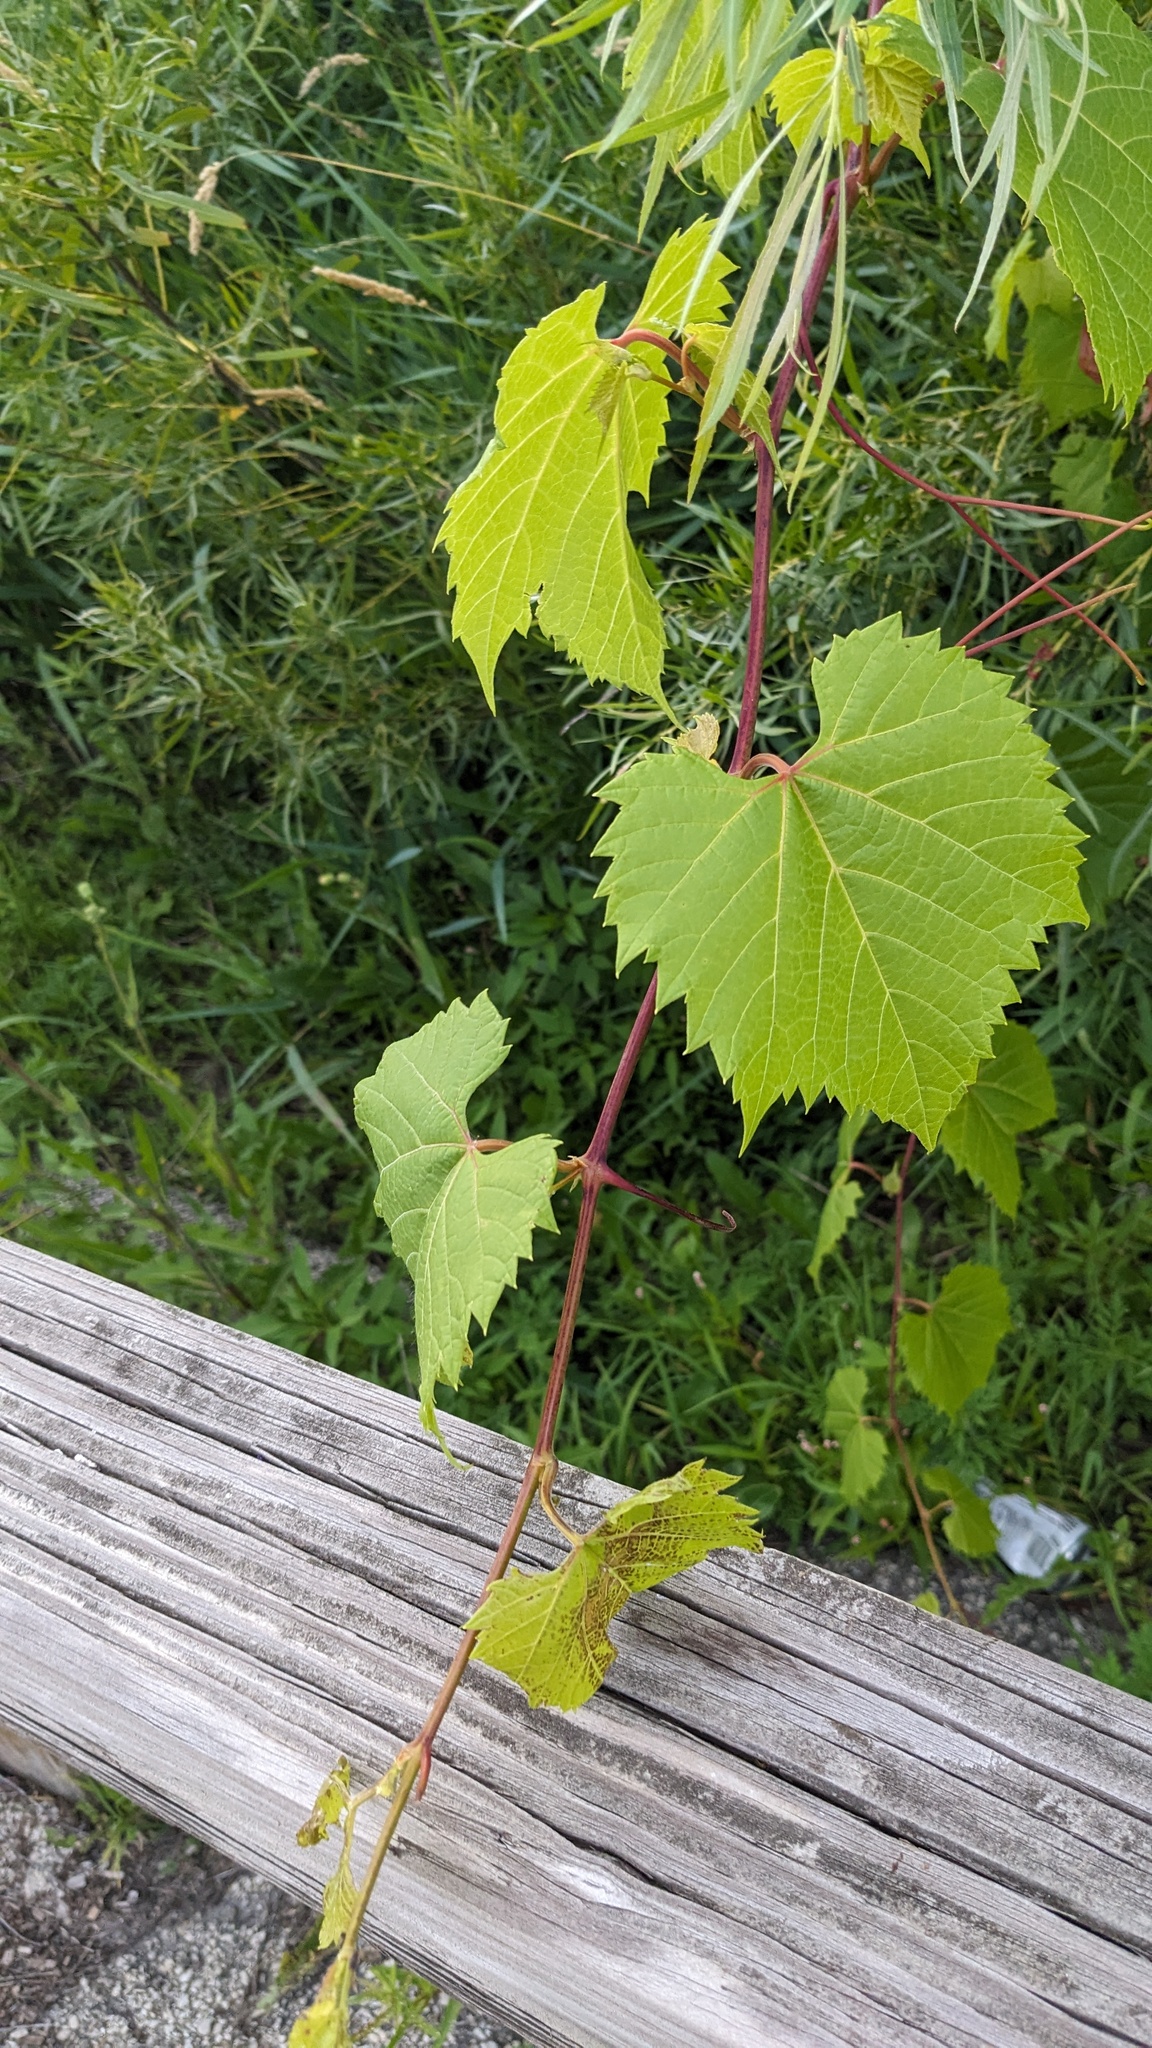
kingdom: Plantae
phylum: Tracheophyta
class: Magnoliopsida
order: Vitales
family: Vitaceae
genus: Vitis
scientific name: Vitis riparia
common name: Frost grape
